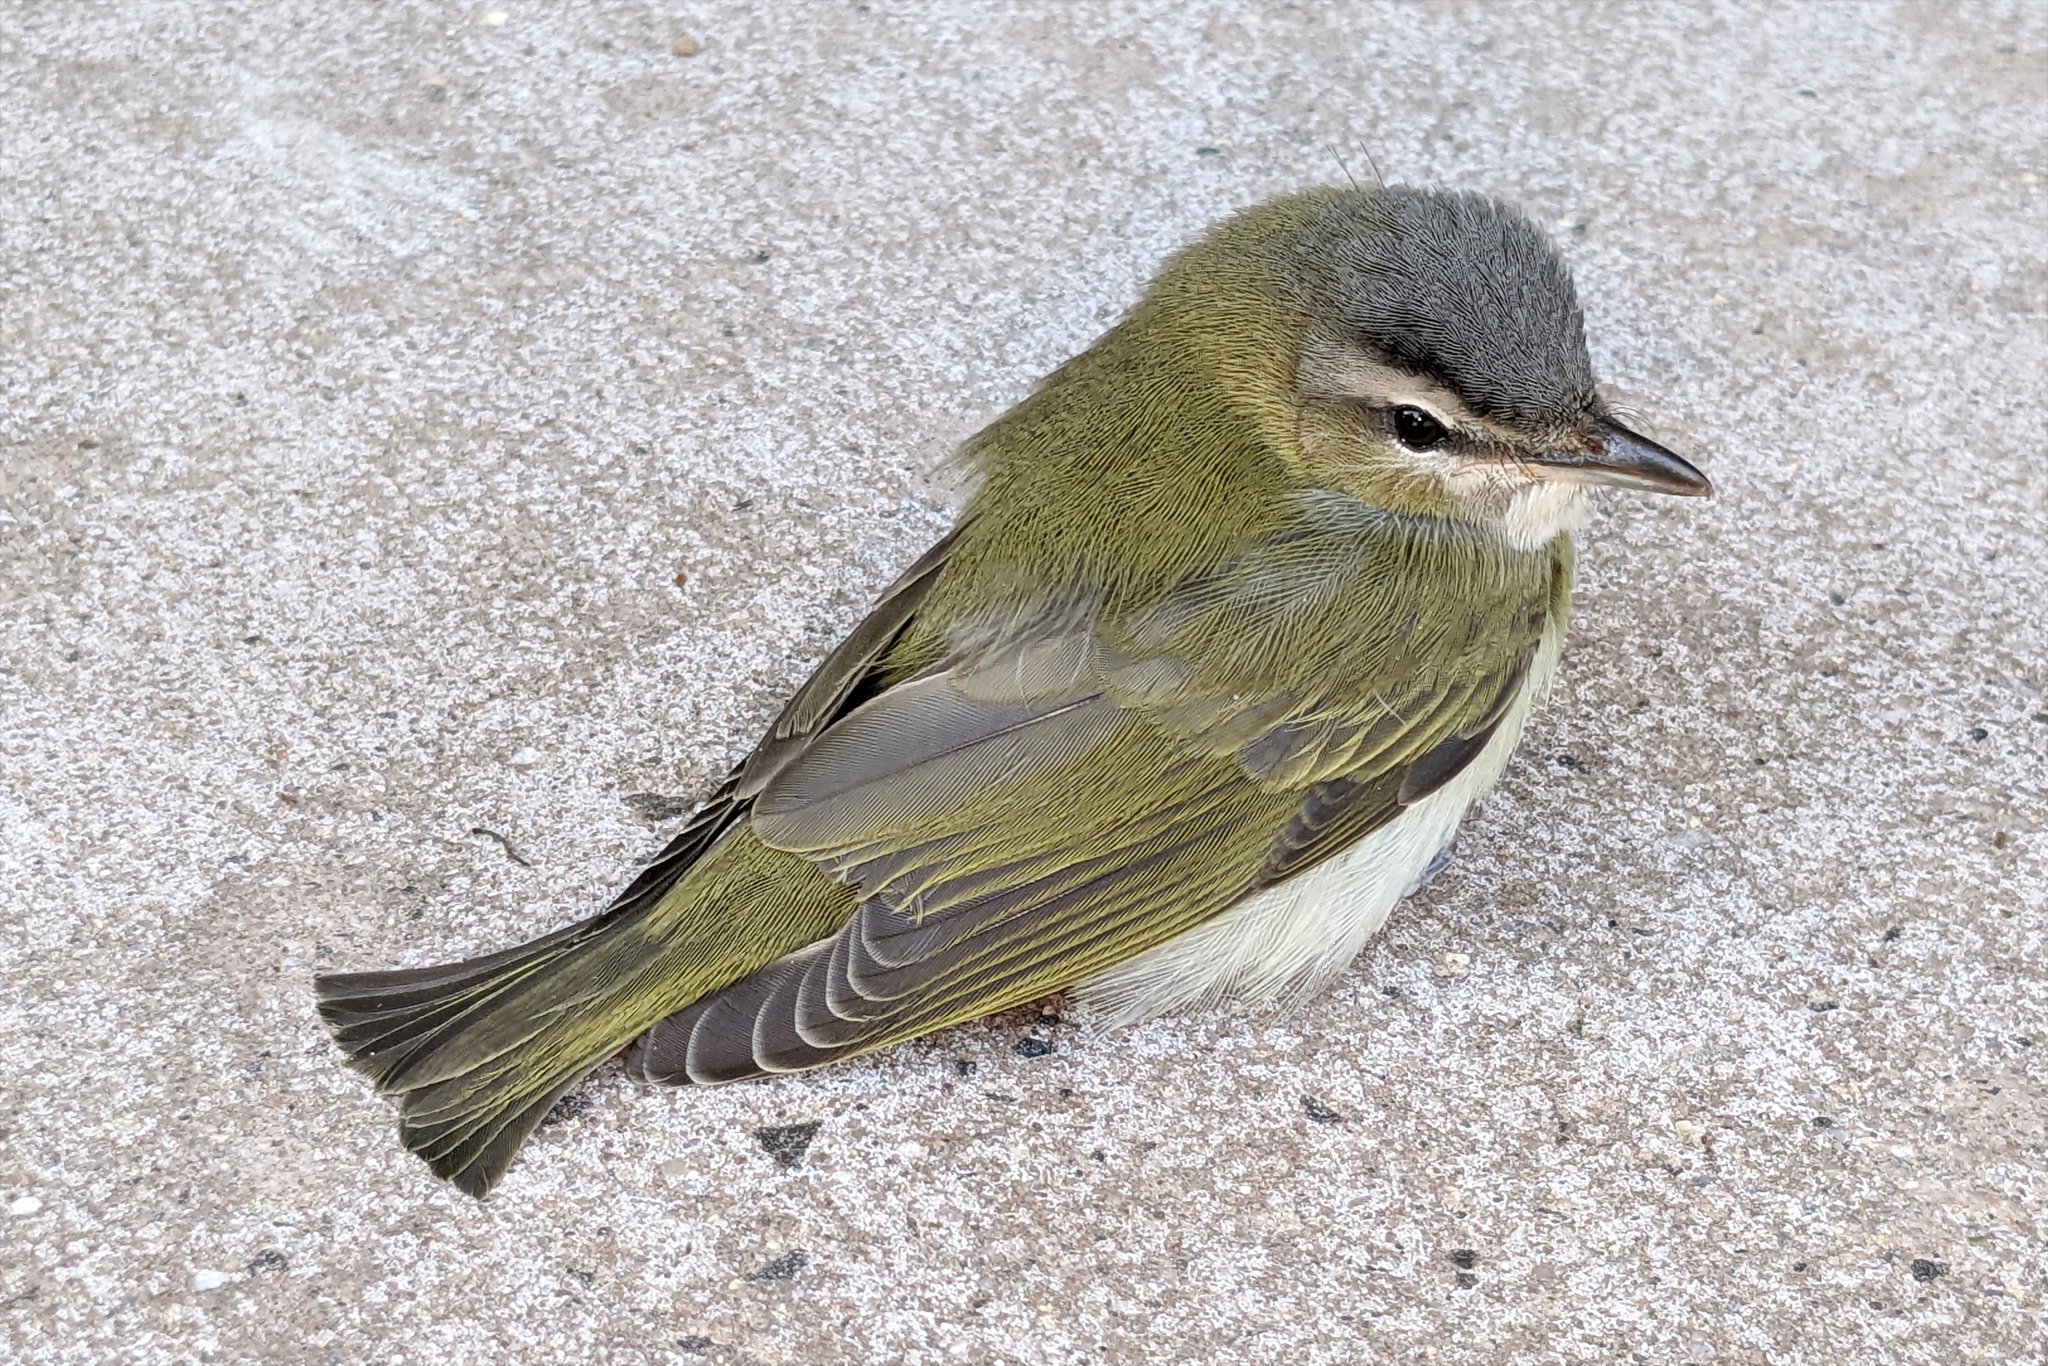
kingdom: Animalia
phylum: Chordata
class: Aves
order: Passeriformes
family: Vireonidae
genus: Vireo
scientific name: Vireo olivaceus
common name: Red-eyed vireo
